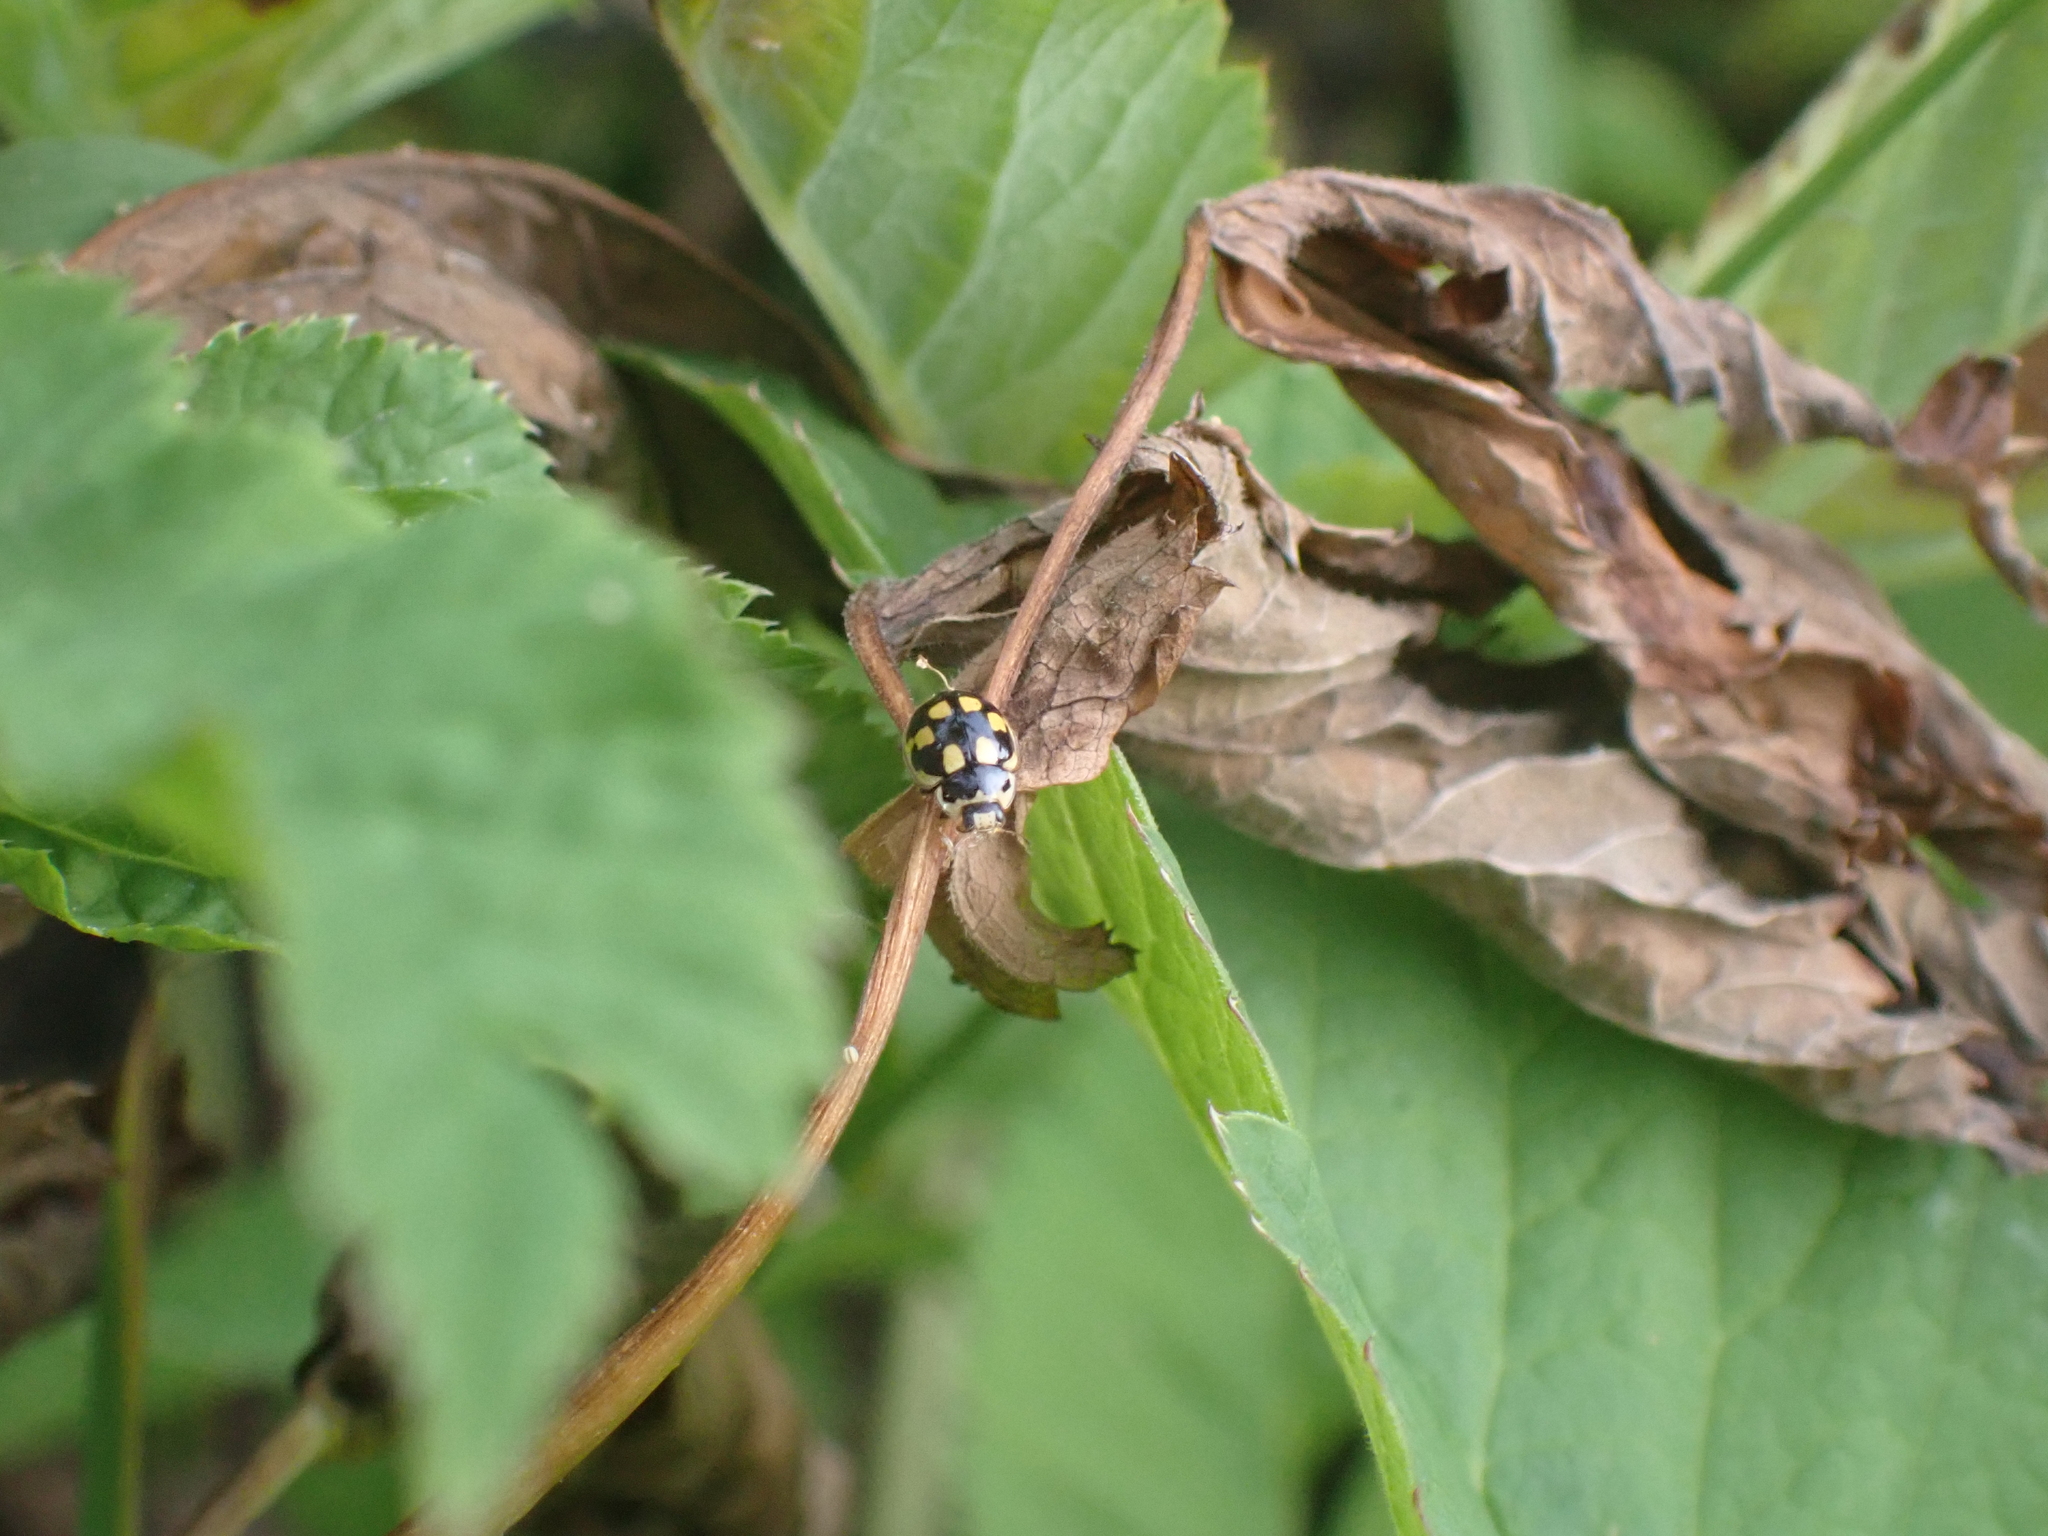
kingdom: Animalia
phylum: Arthropoda
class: Insecta
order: Coleoptera
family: Coccinellidae
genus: Propylaea
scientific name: Propylaea quatuordecimpunctata
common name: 14-spotted ladybird beetle
